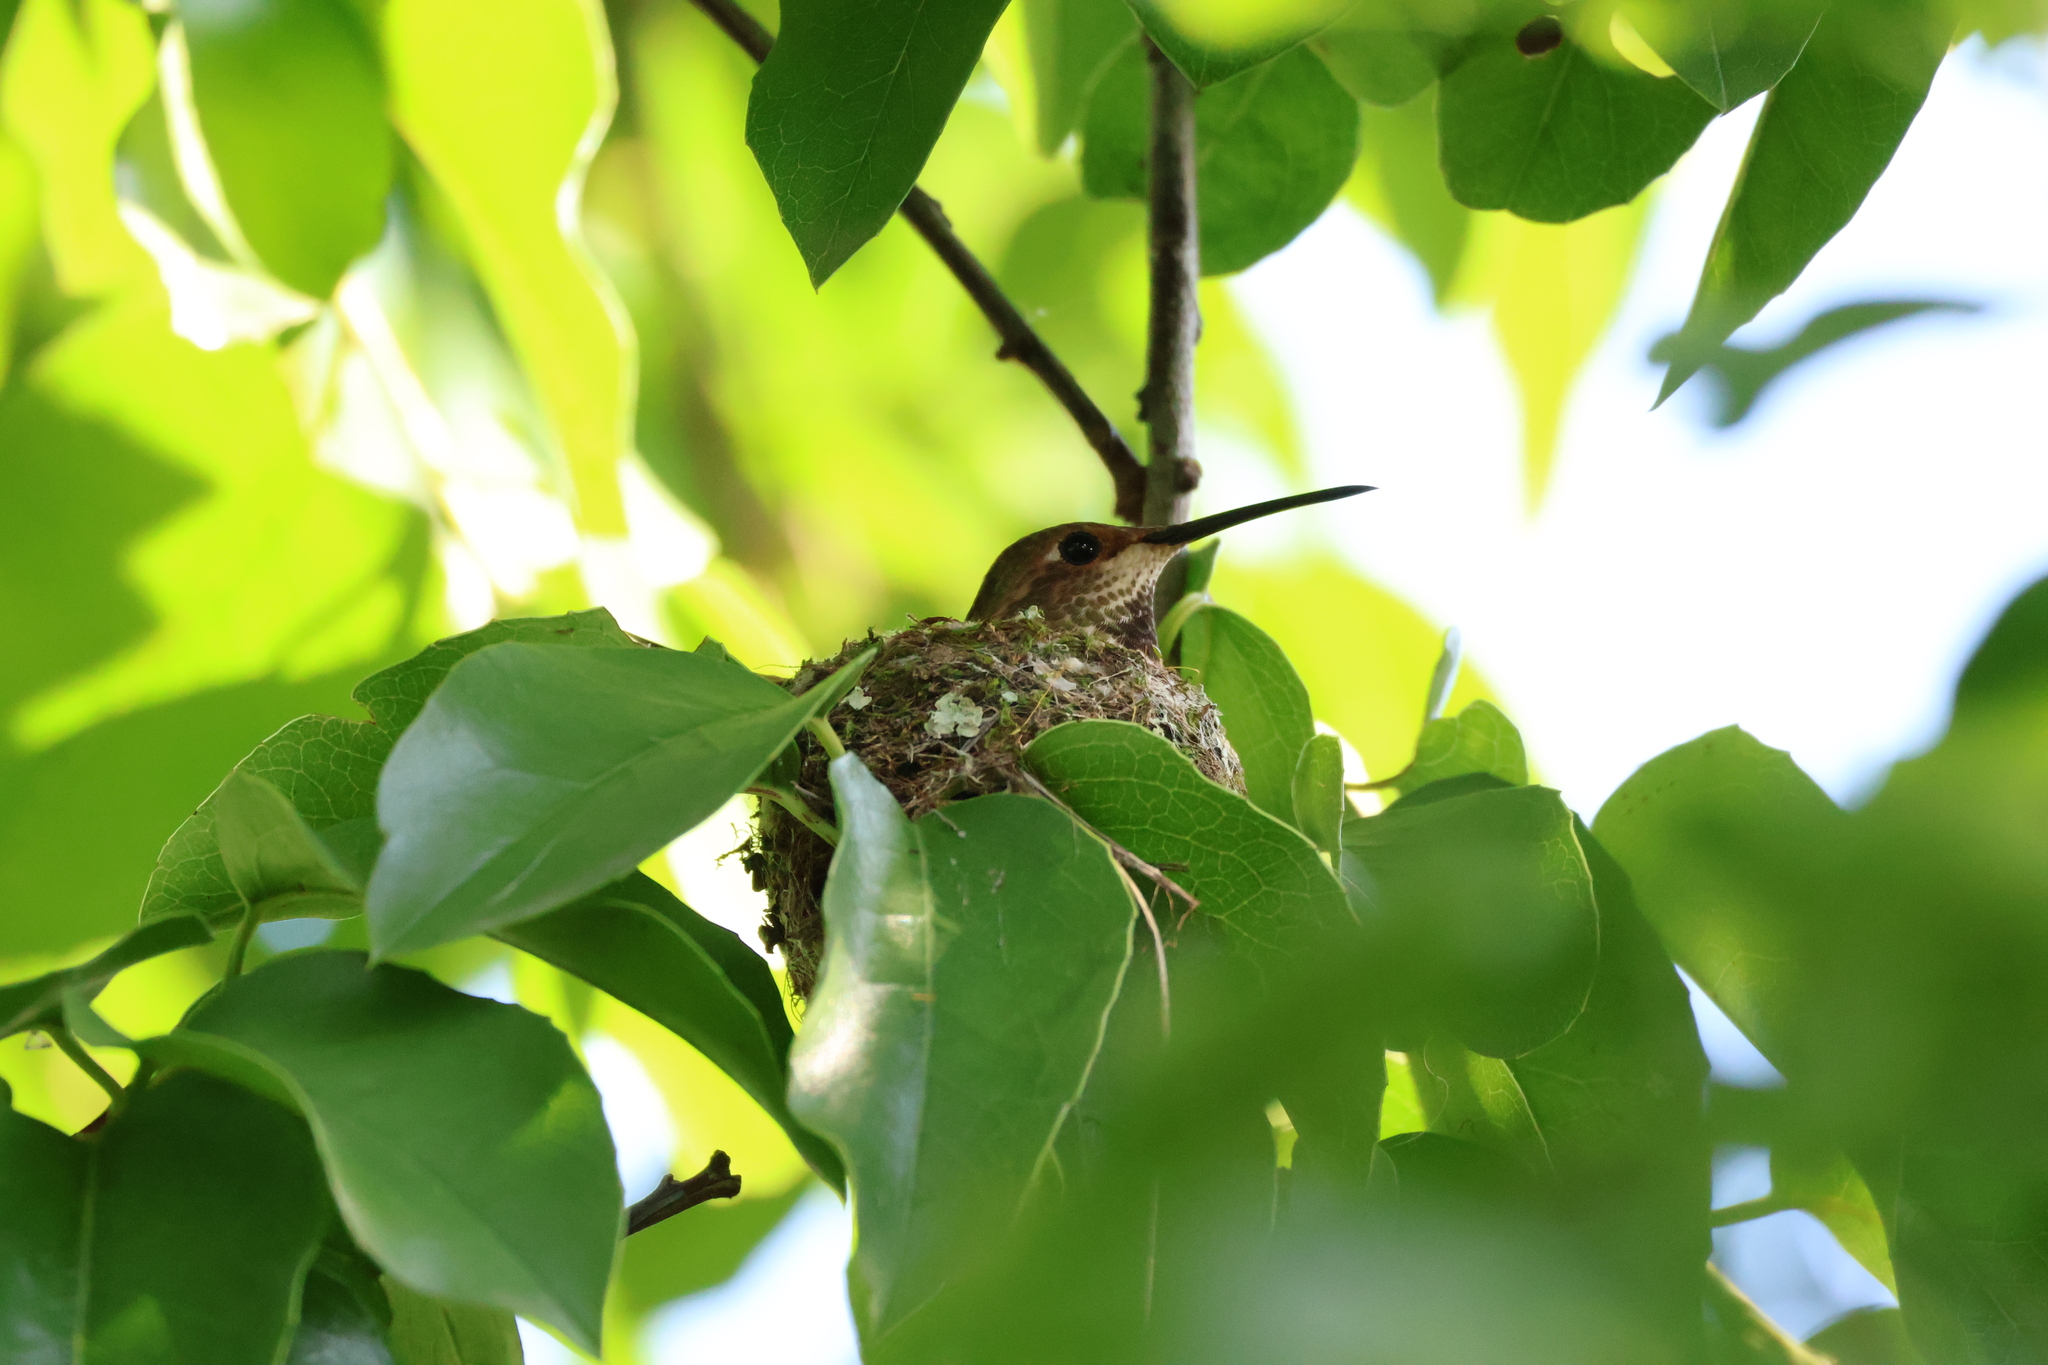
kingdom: Animalia
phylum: Chordata
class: Aves
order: Apodiformes
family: Trochilidae
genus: Selasphorus
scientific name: Selasphorus sasin
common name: Allen's hummingbird
